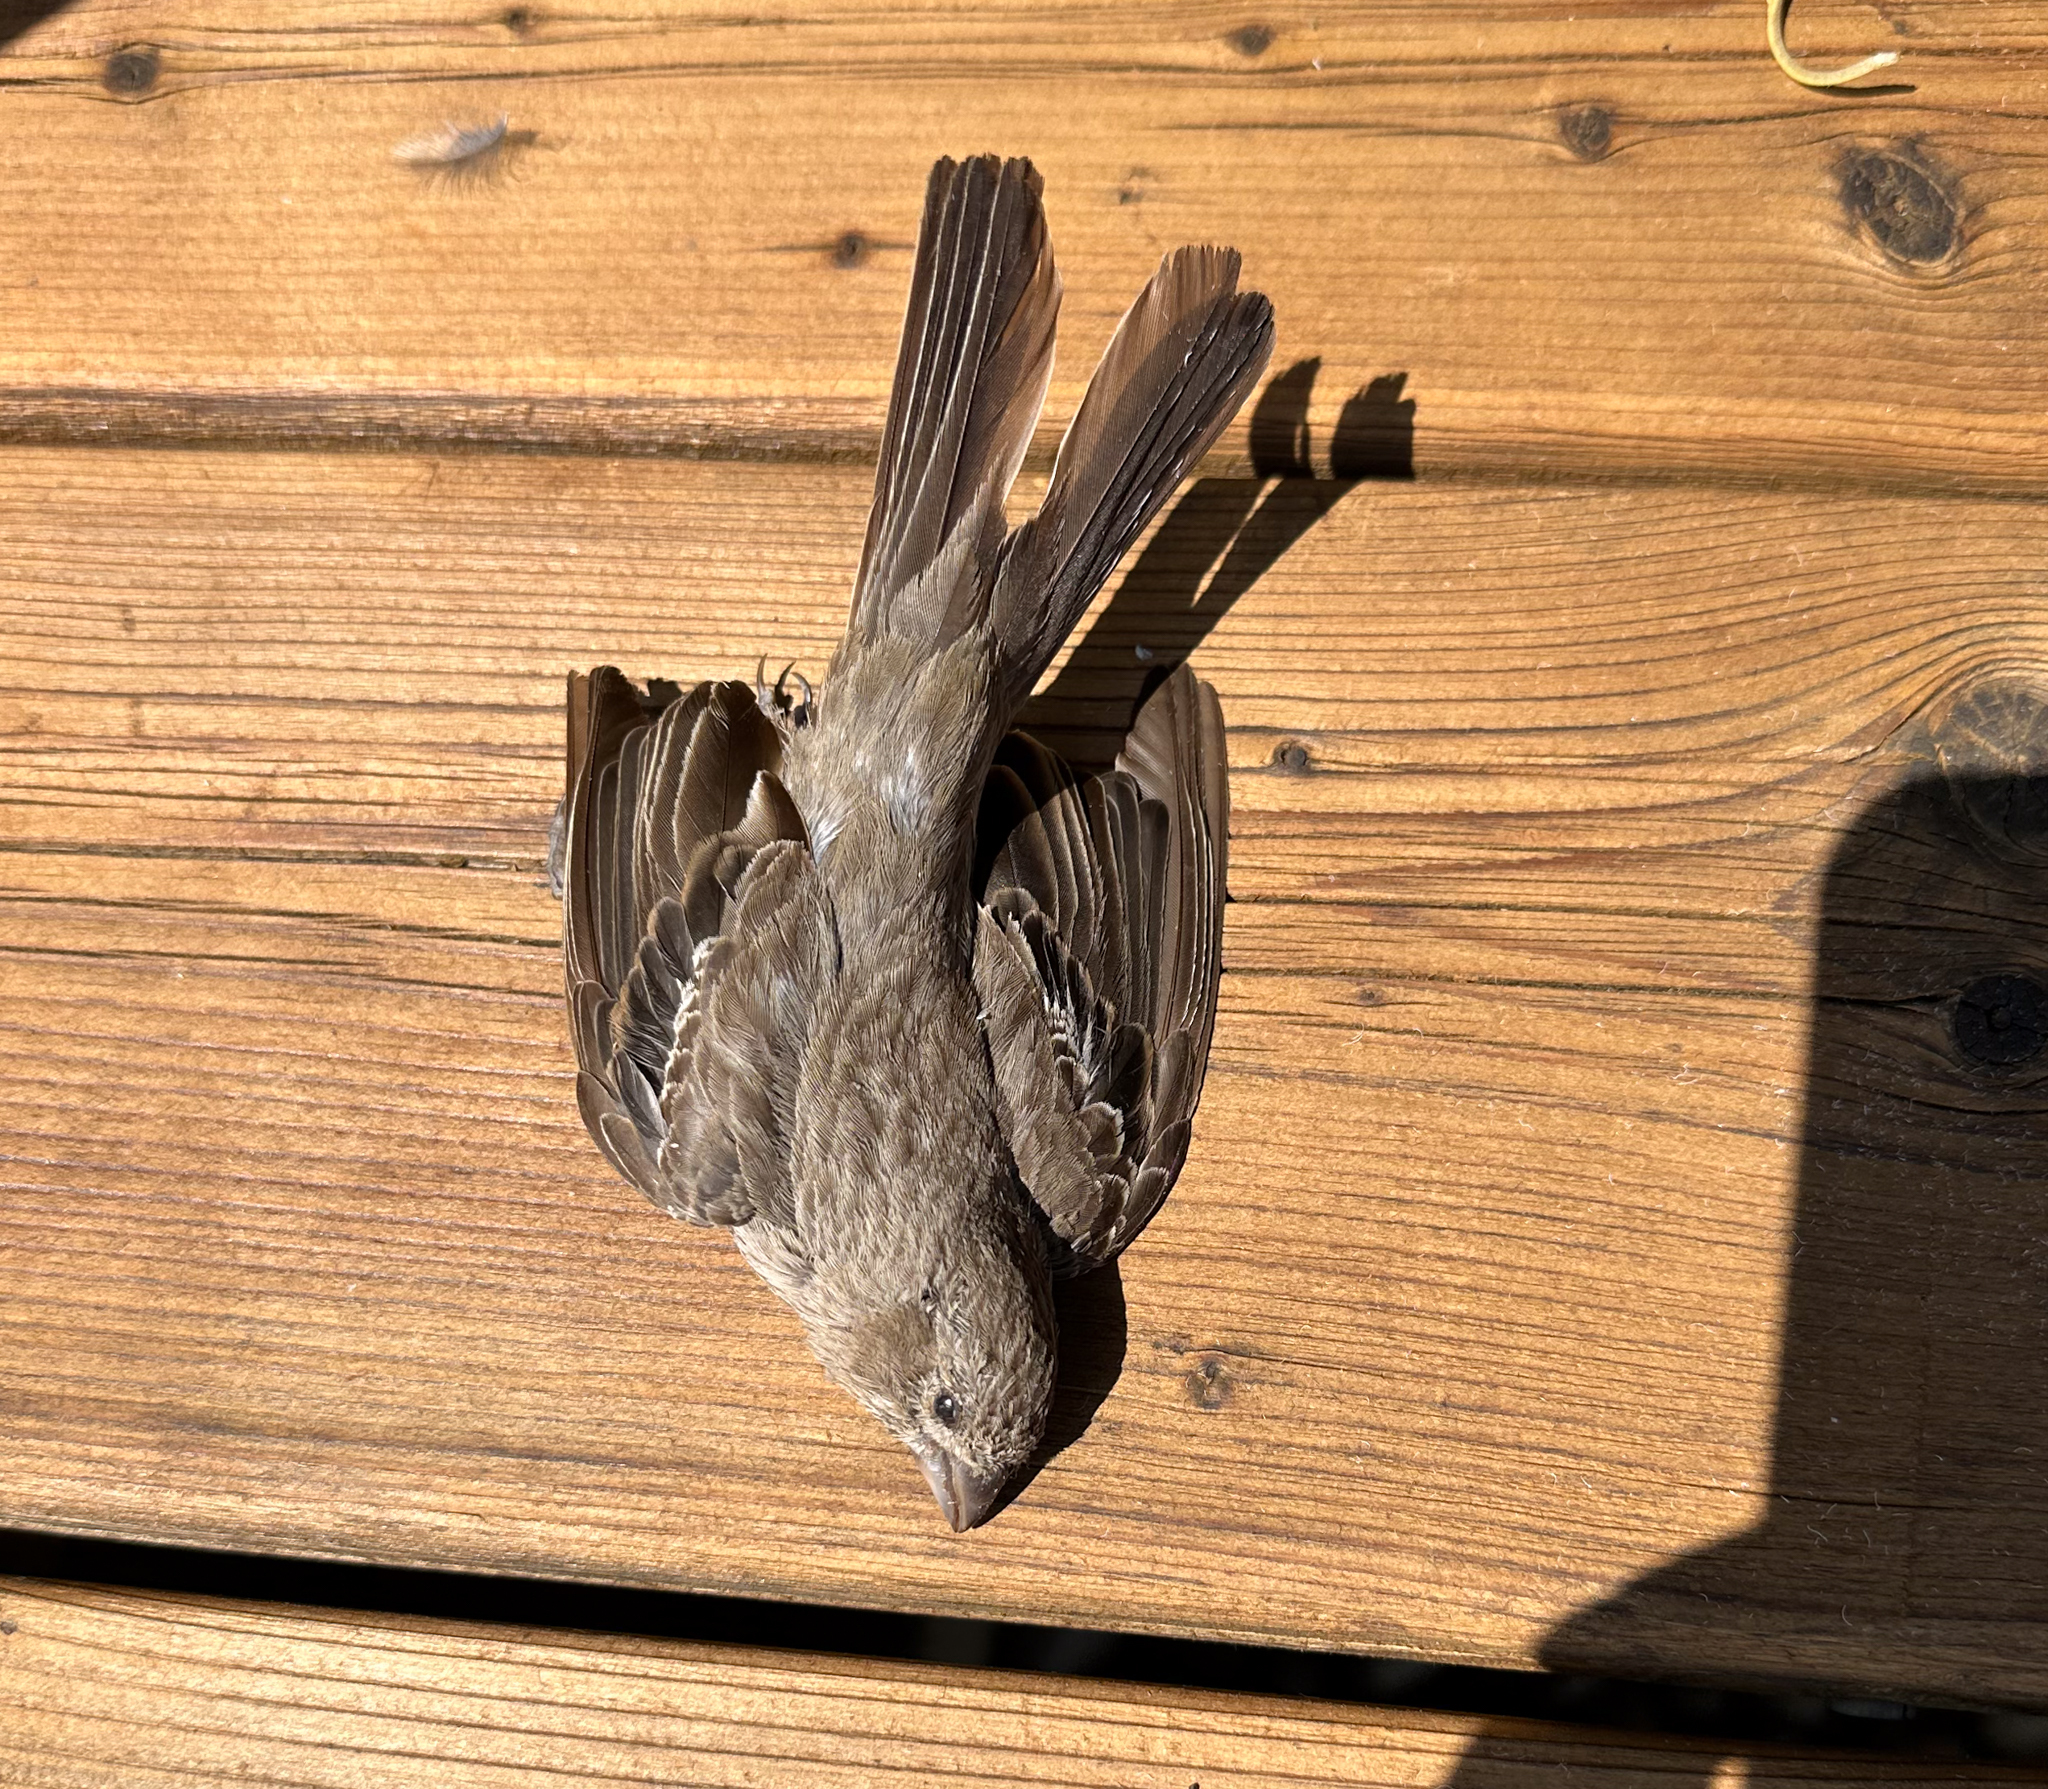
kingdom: Animalia
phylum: Chordata
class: Aves
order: Passeriformes
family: Fringillidae
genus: Haemorhous
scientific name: Haemorhous mexicanus
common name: House finch
